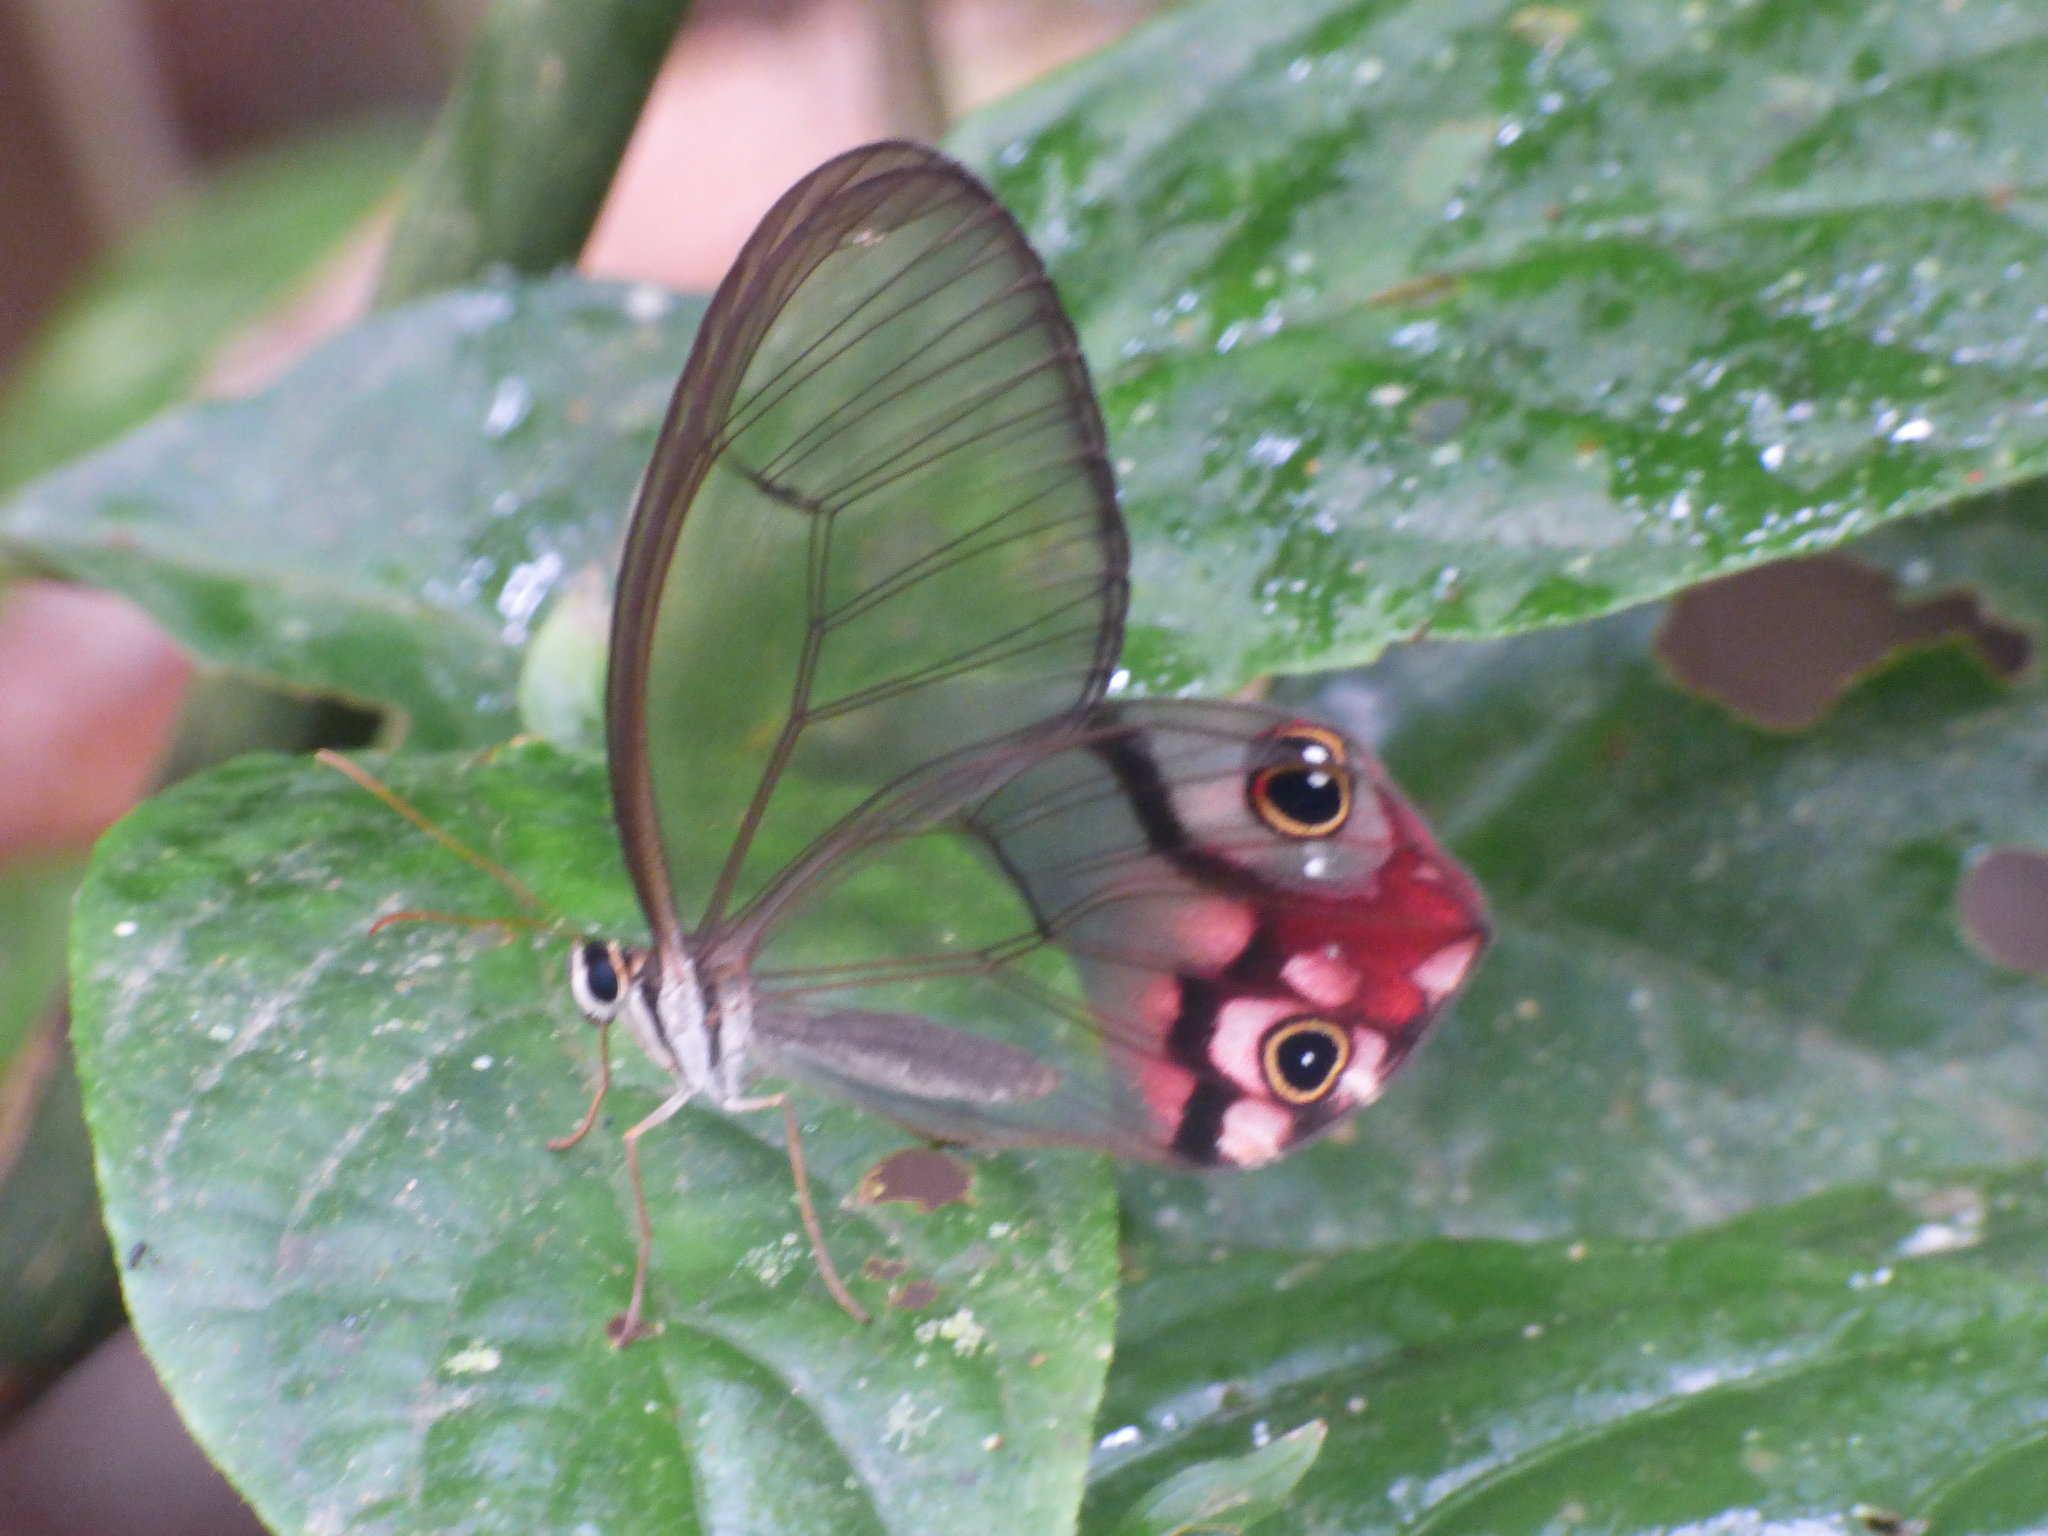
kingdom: Animalia
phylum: Arthropoda
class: Insecta
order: Lepidoptera
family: Nymphalidae
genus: Haetera
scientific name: Haetera macleannania
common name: Reddish clearwing-satyr
